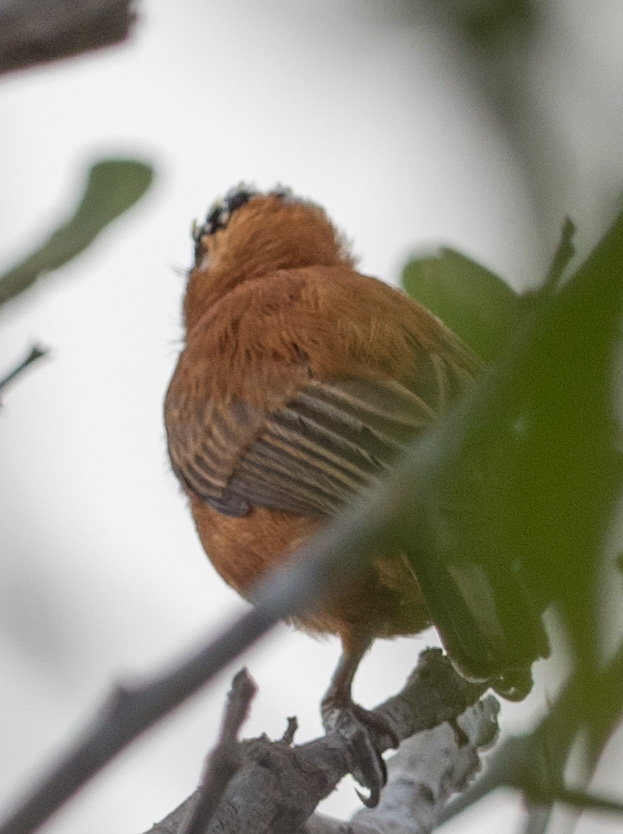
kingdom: Animalia
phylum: Chordata
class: Aves
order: Piciformes
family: Picidae
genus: Picumnus
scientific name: Picumnus cinnamomeus
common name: Chestnut piculet
